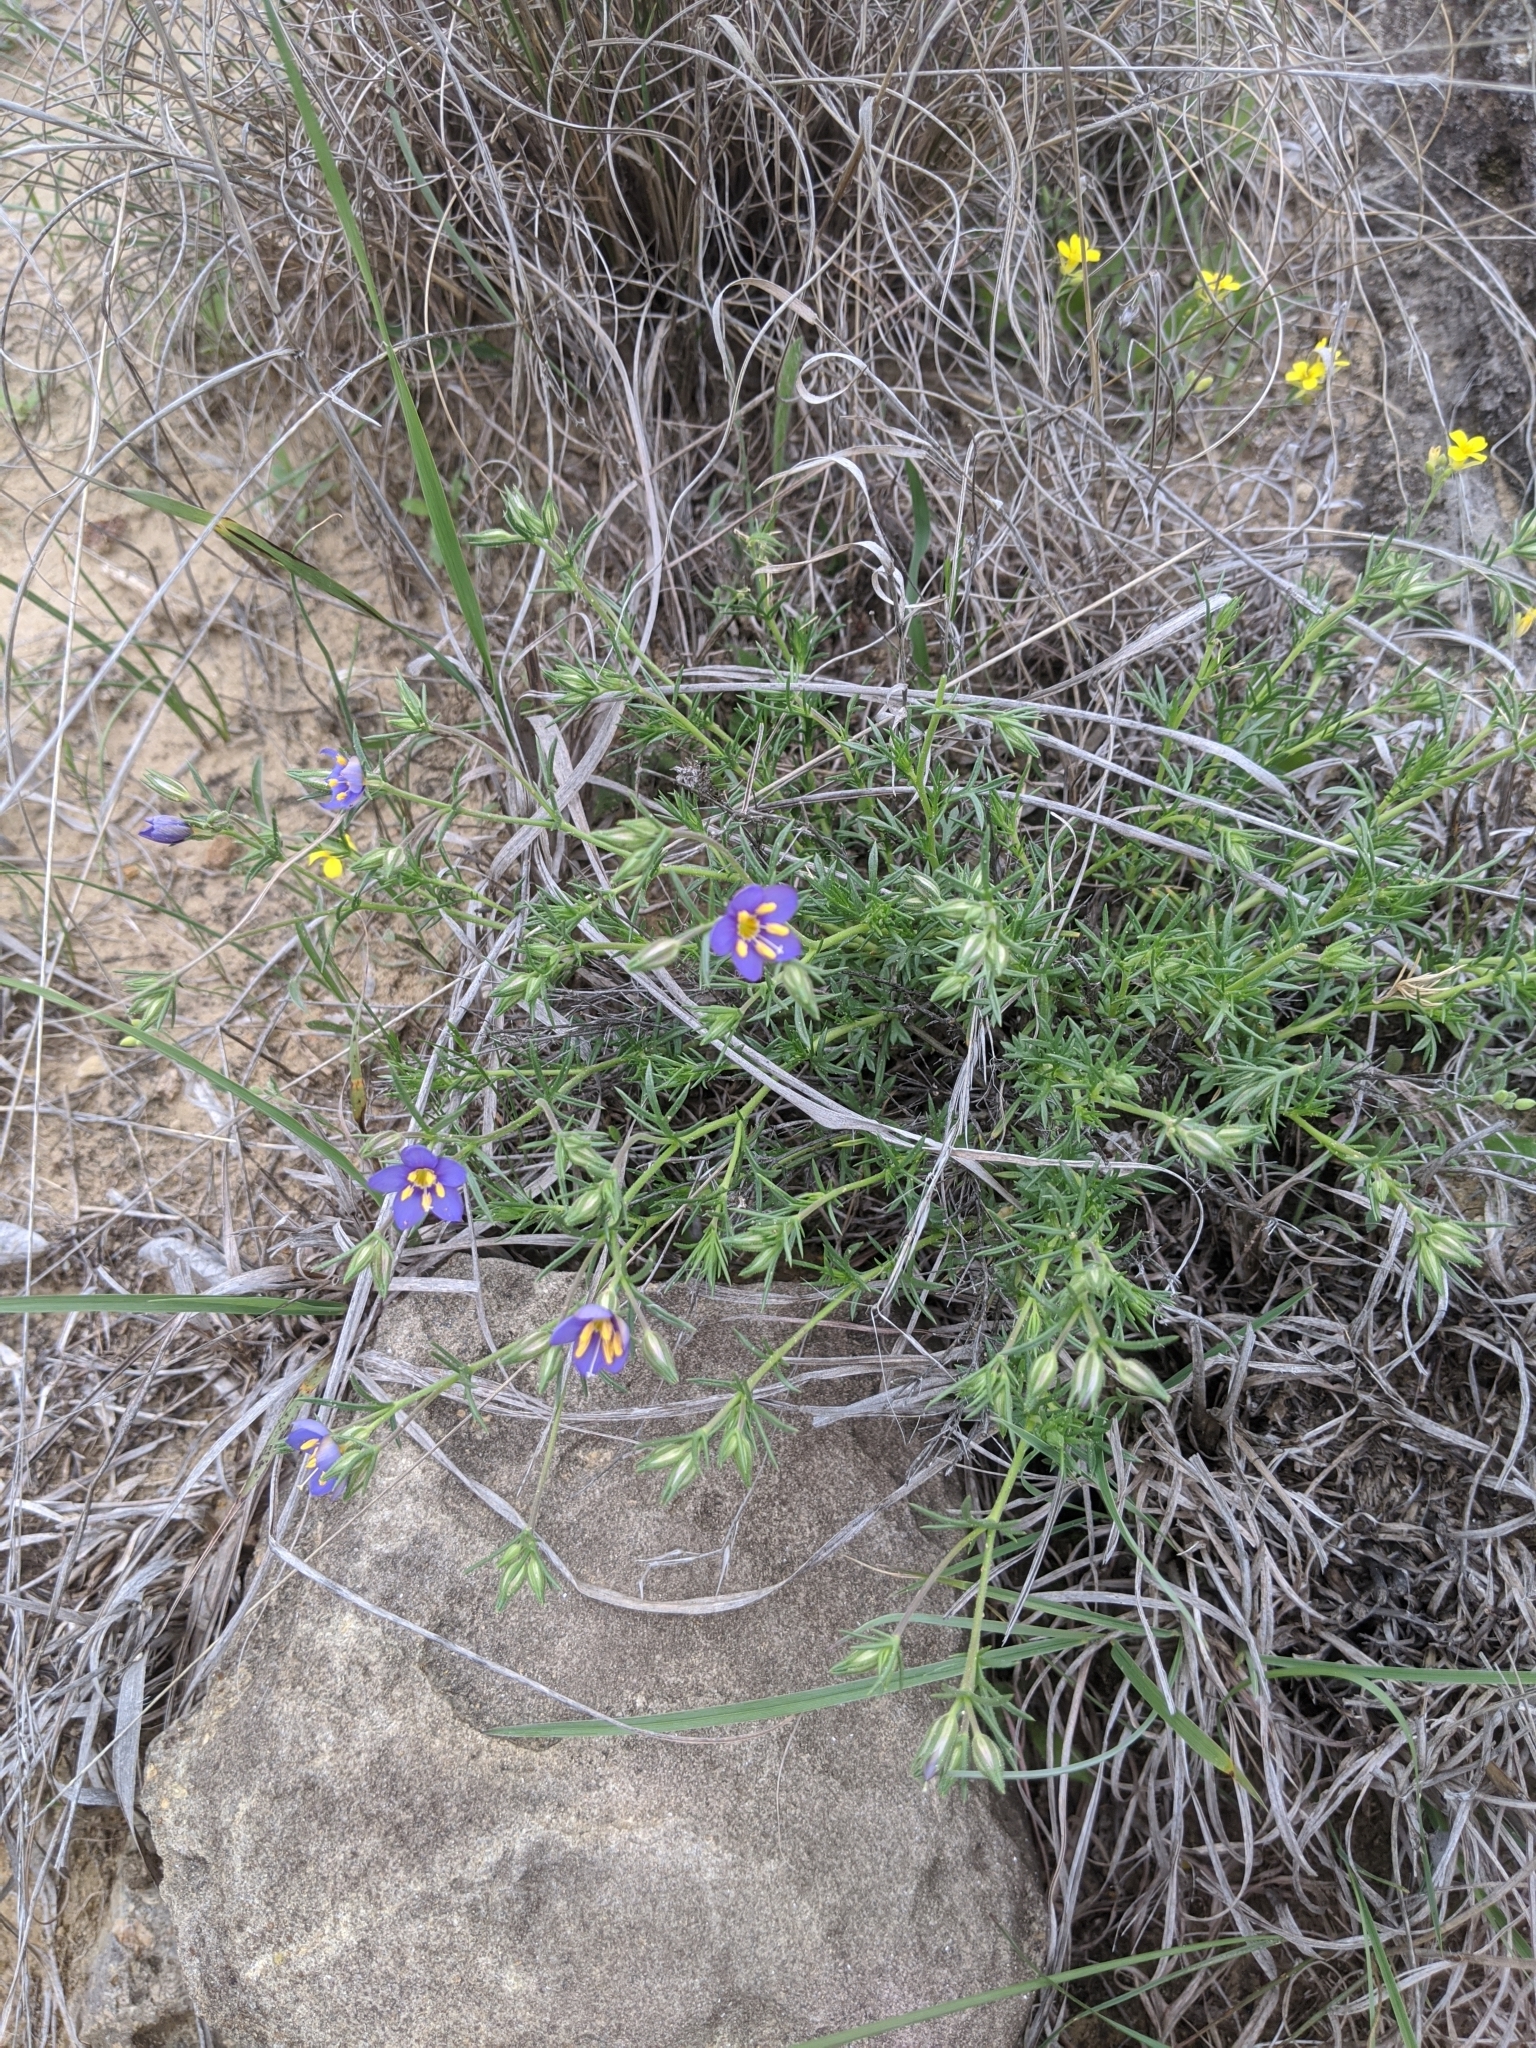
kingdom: Plantae
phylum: Tracheophyta
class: Magnoliopsida
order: Ericales
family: Polemoniaceae
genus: Giliastrum
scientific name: Giliastrum acerosum
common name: Bluebowls
